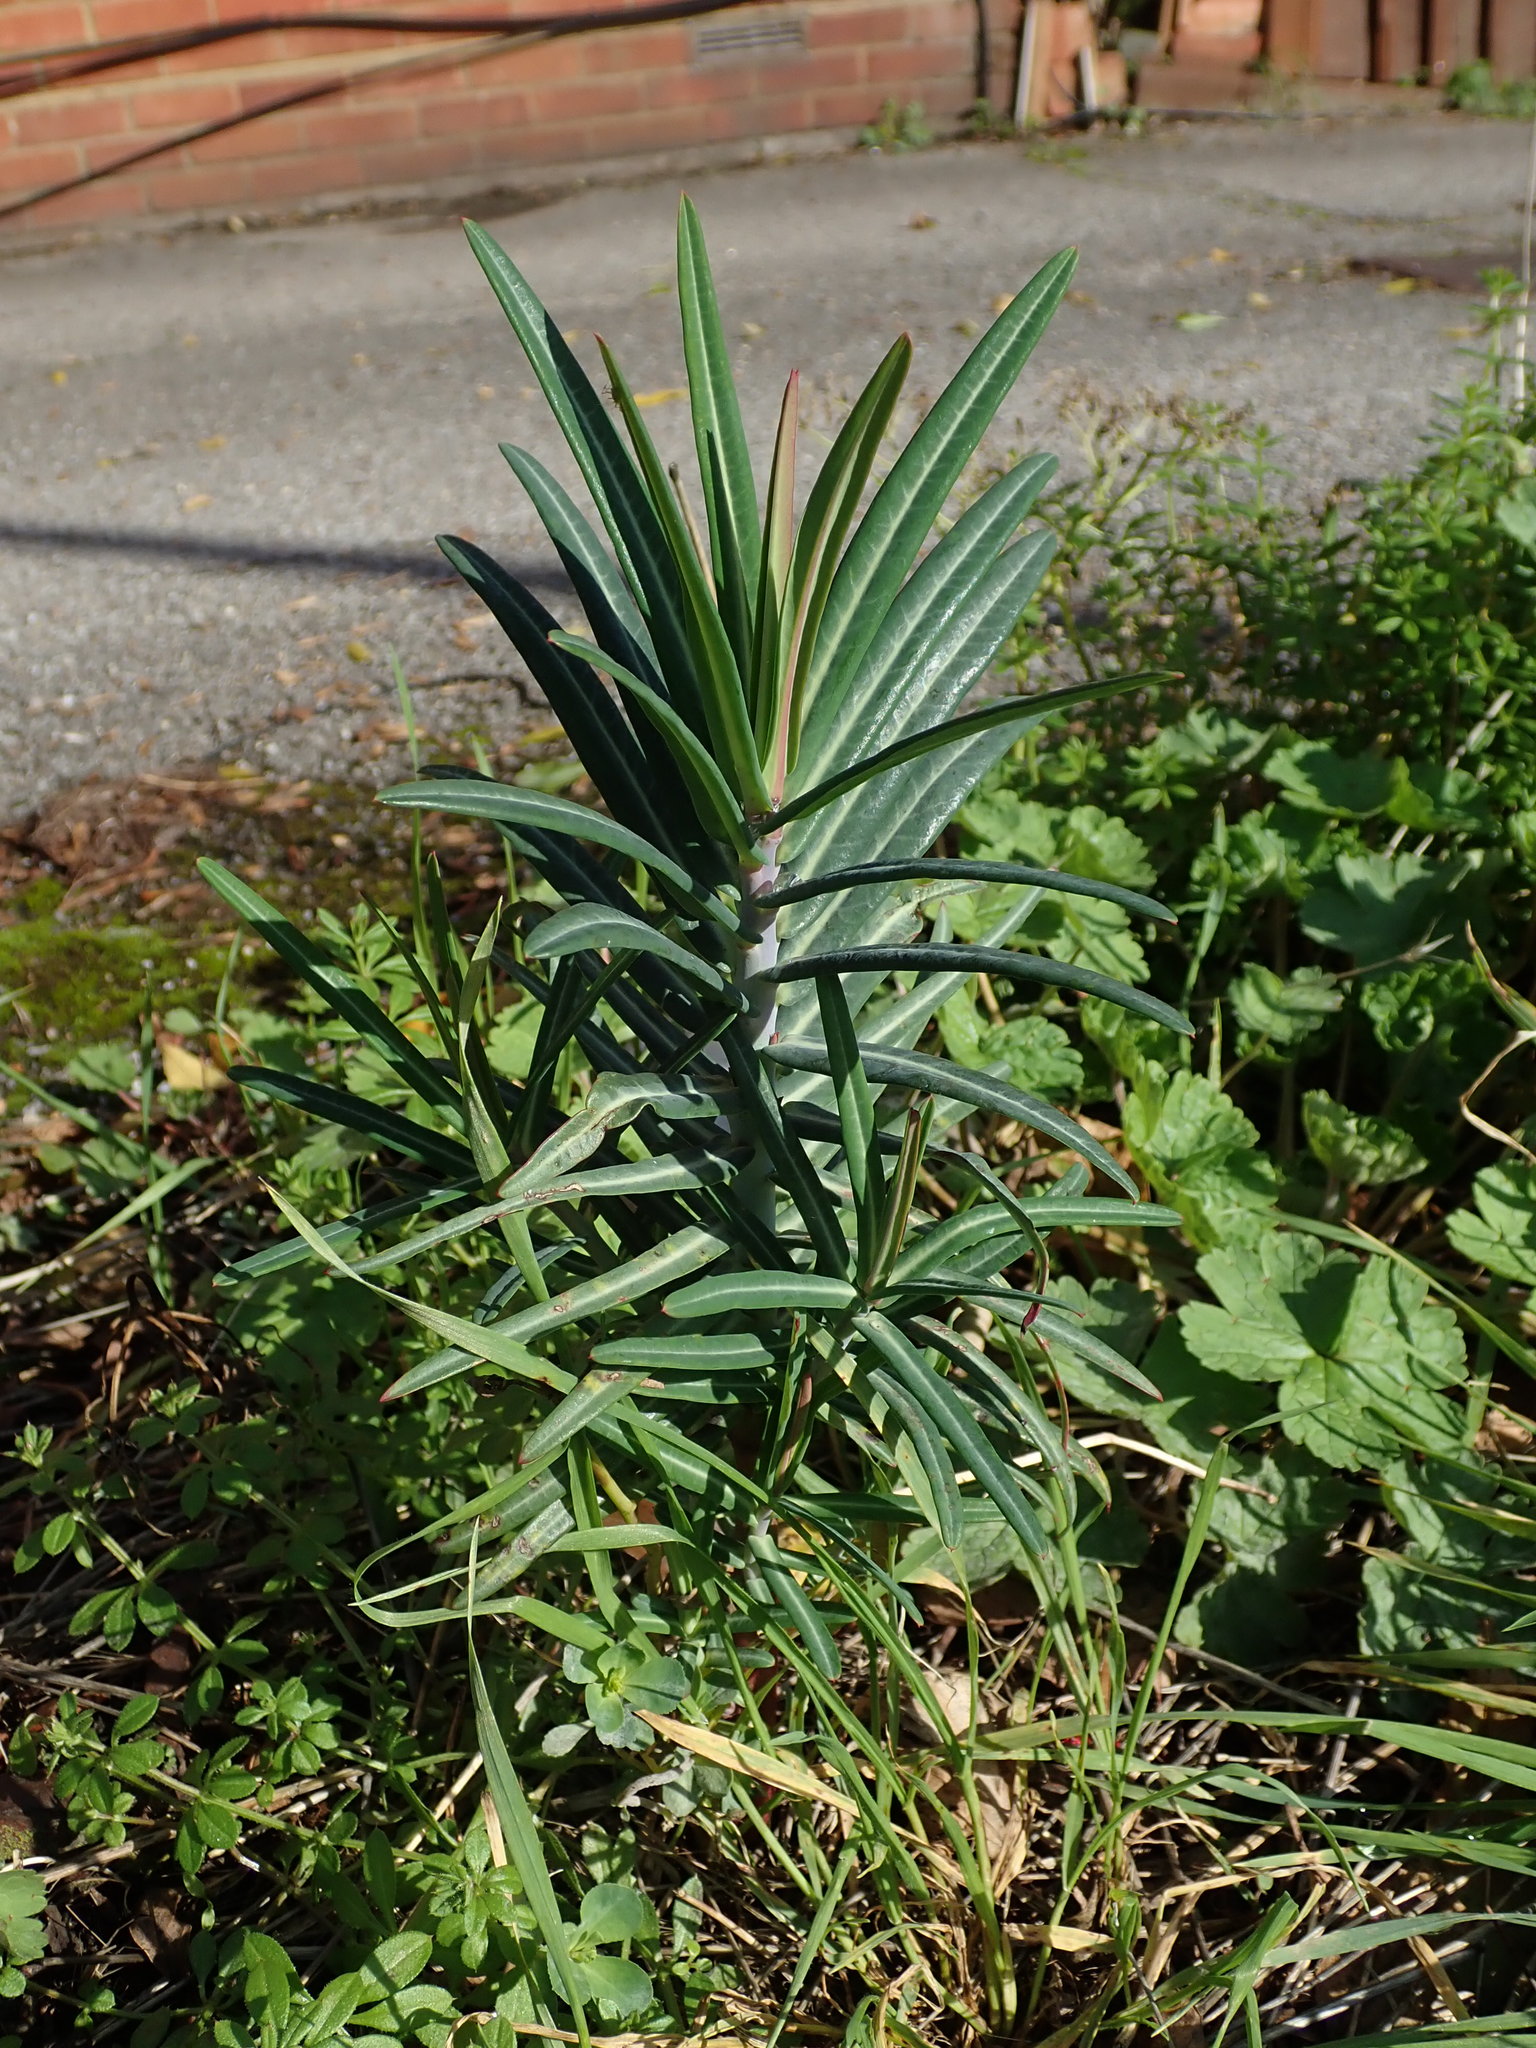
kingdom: Plantae
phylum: Tracheophyta
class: Magnoliopsida
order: Malpighiales
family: Euphorbiaceae
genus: Euphorbia
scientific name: Euphorbia lathyris
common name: Caper spurge
